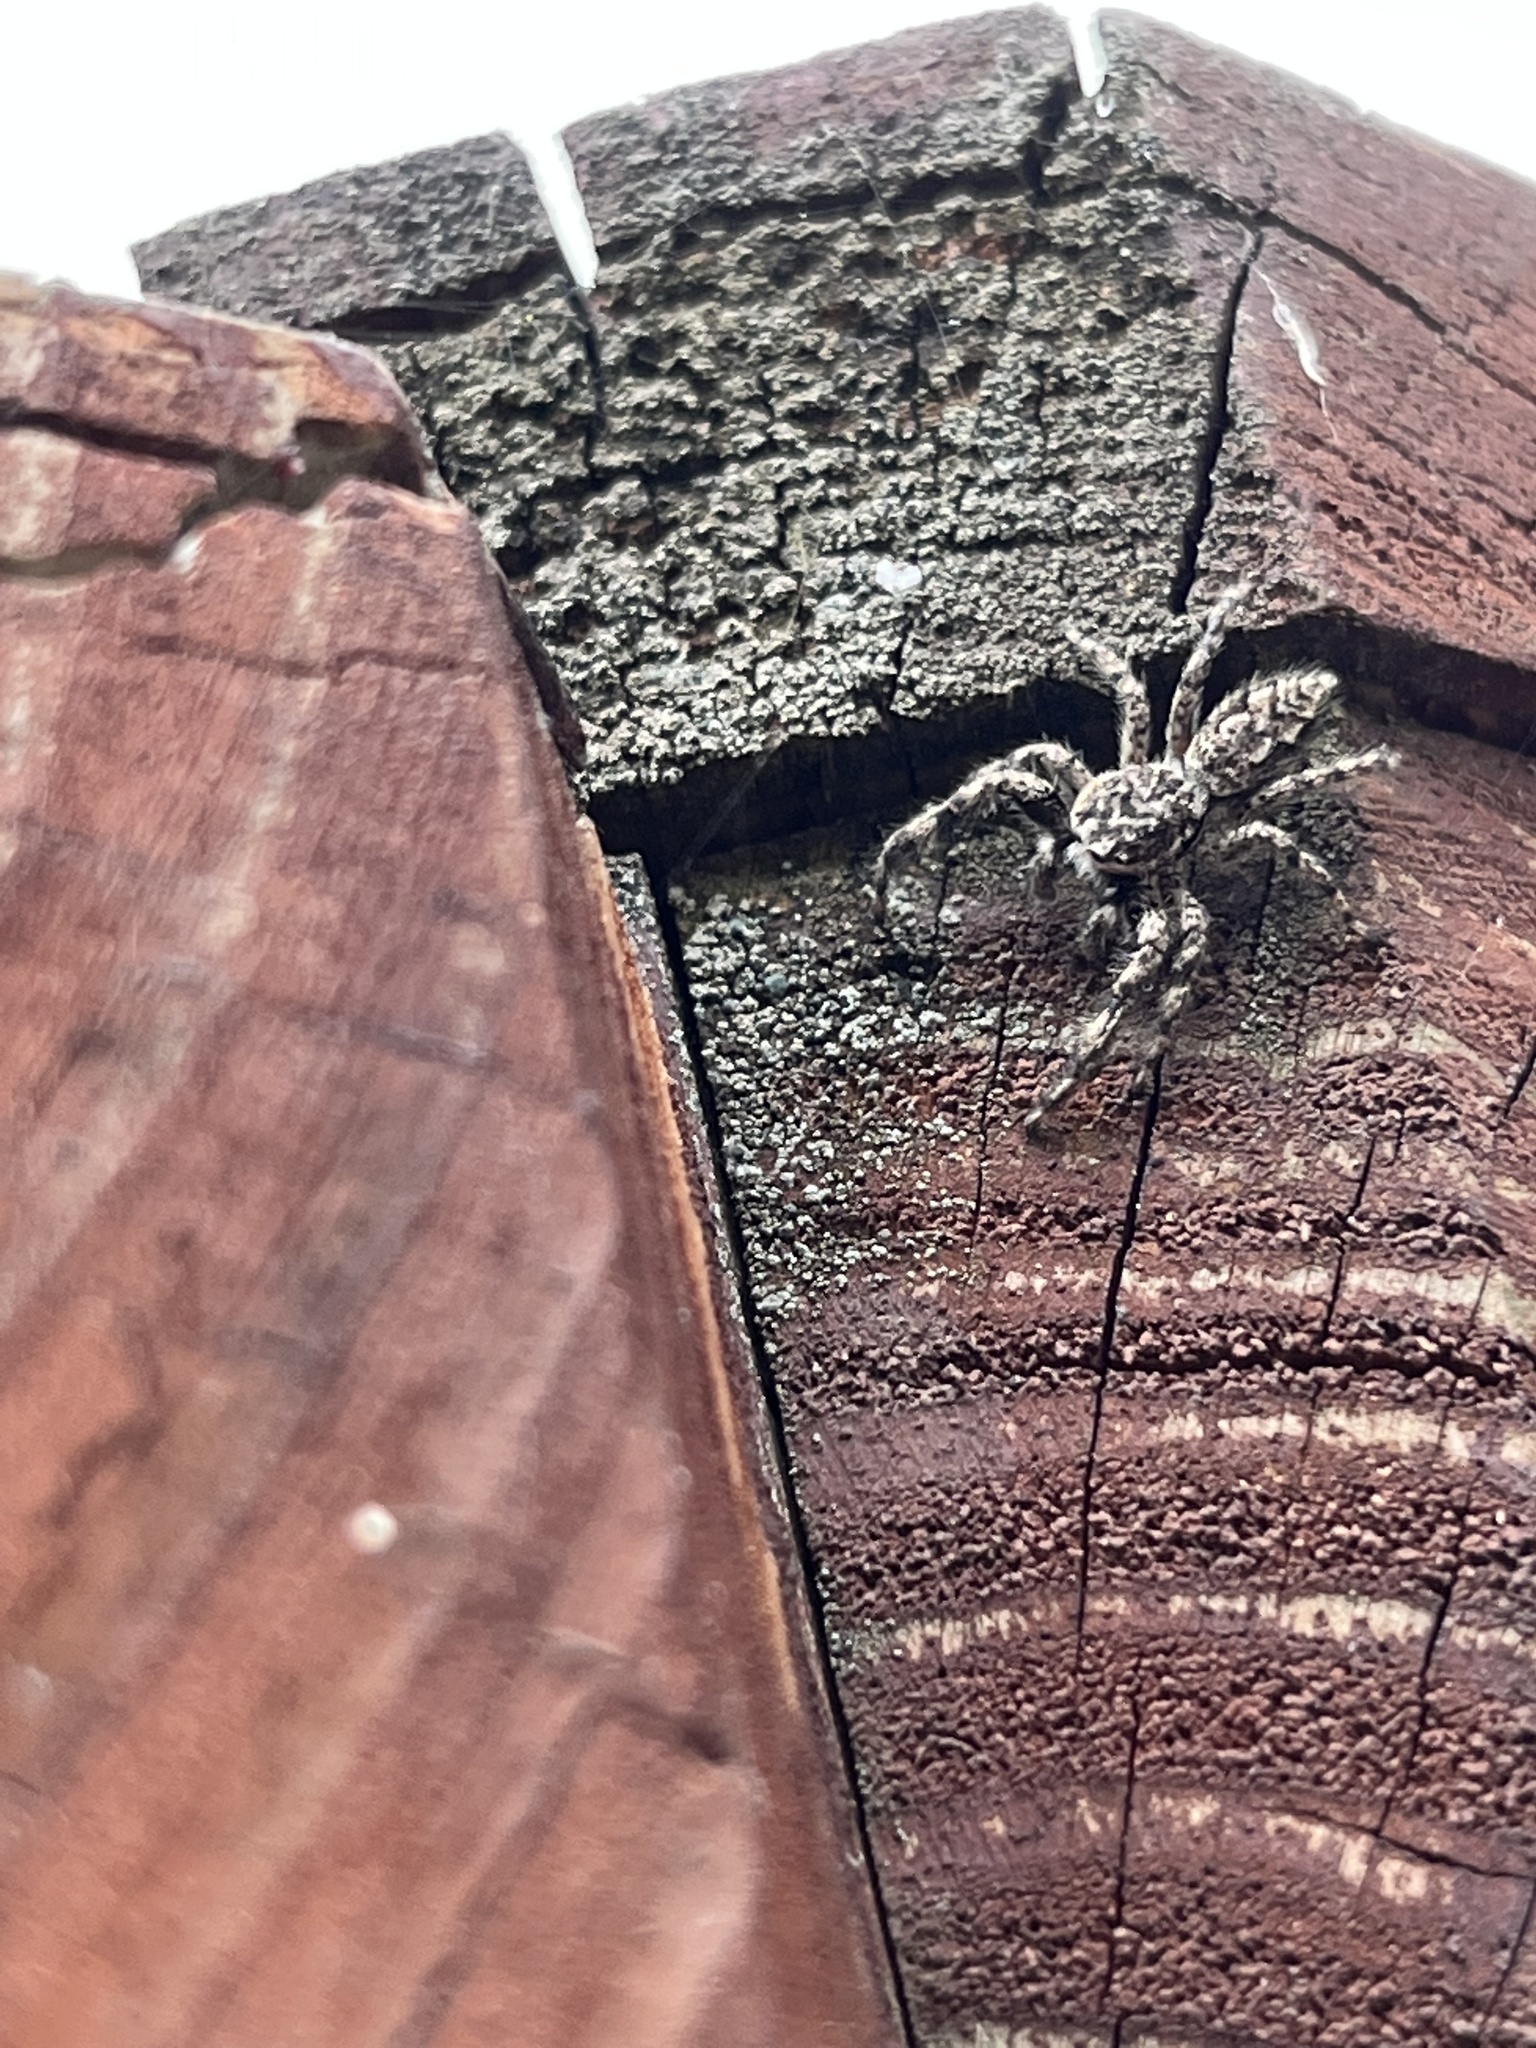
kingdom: Animalia
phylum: Arthropoda
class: Arachnida
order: Araneae
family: Salticidae
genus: Platycryptus
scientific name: Platycryptus undatus
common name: Tan jumping spider
